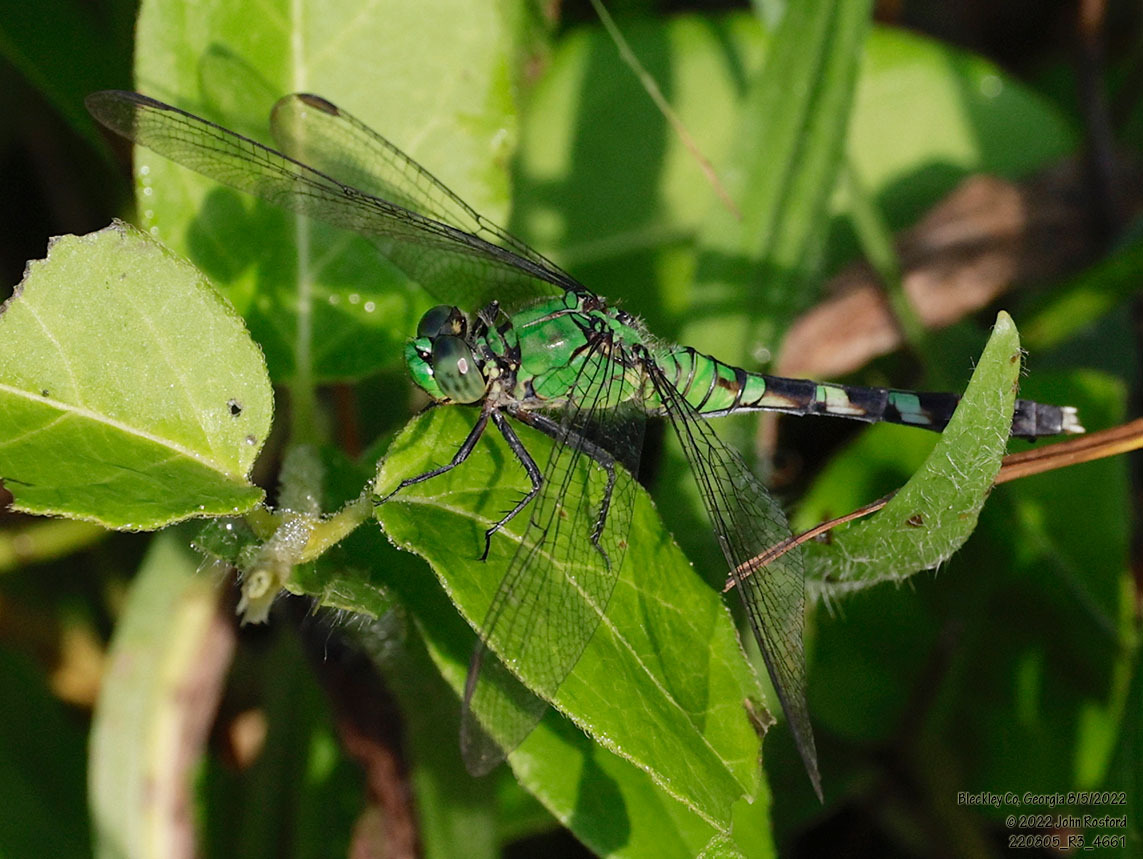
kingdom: Animalia
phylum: Arthropoda
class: Insecta
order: Odonata
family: Libellulidae
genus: Erythemis
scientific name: Erythemis simplicicollis
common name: Eastern pondhawk
